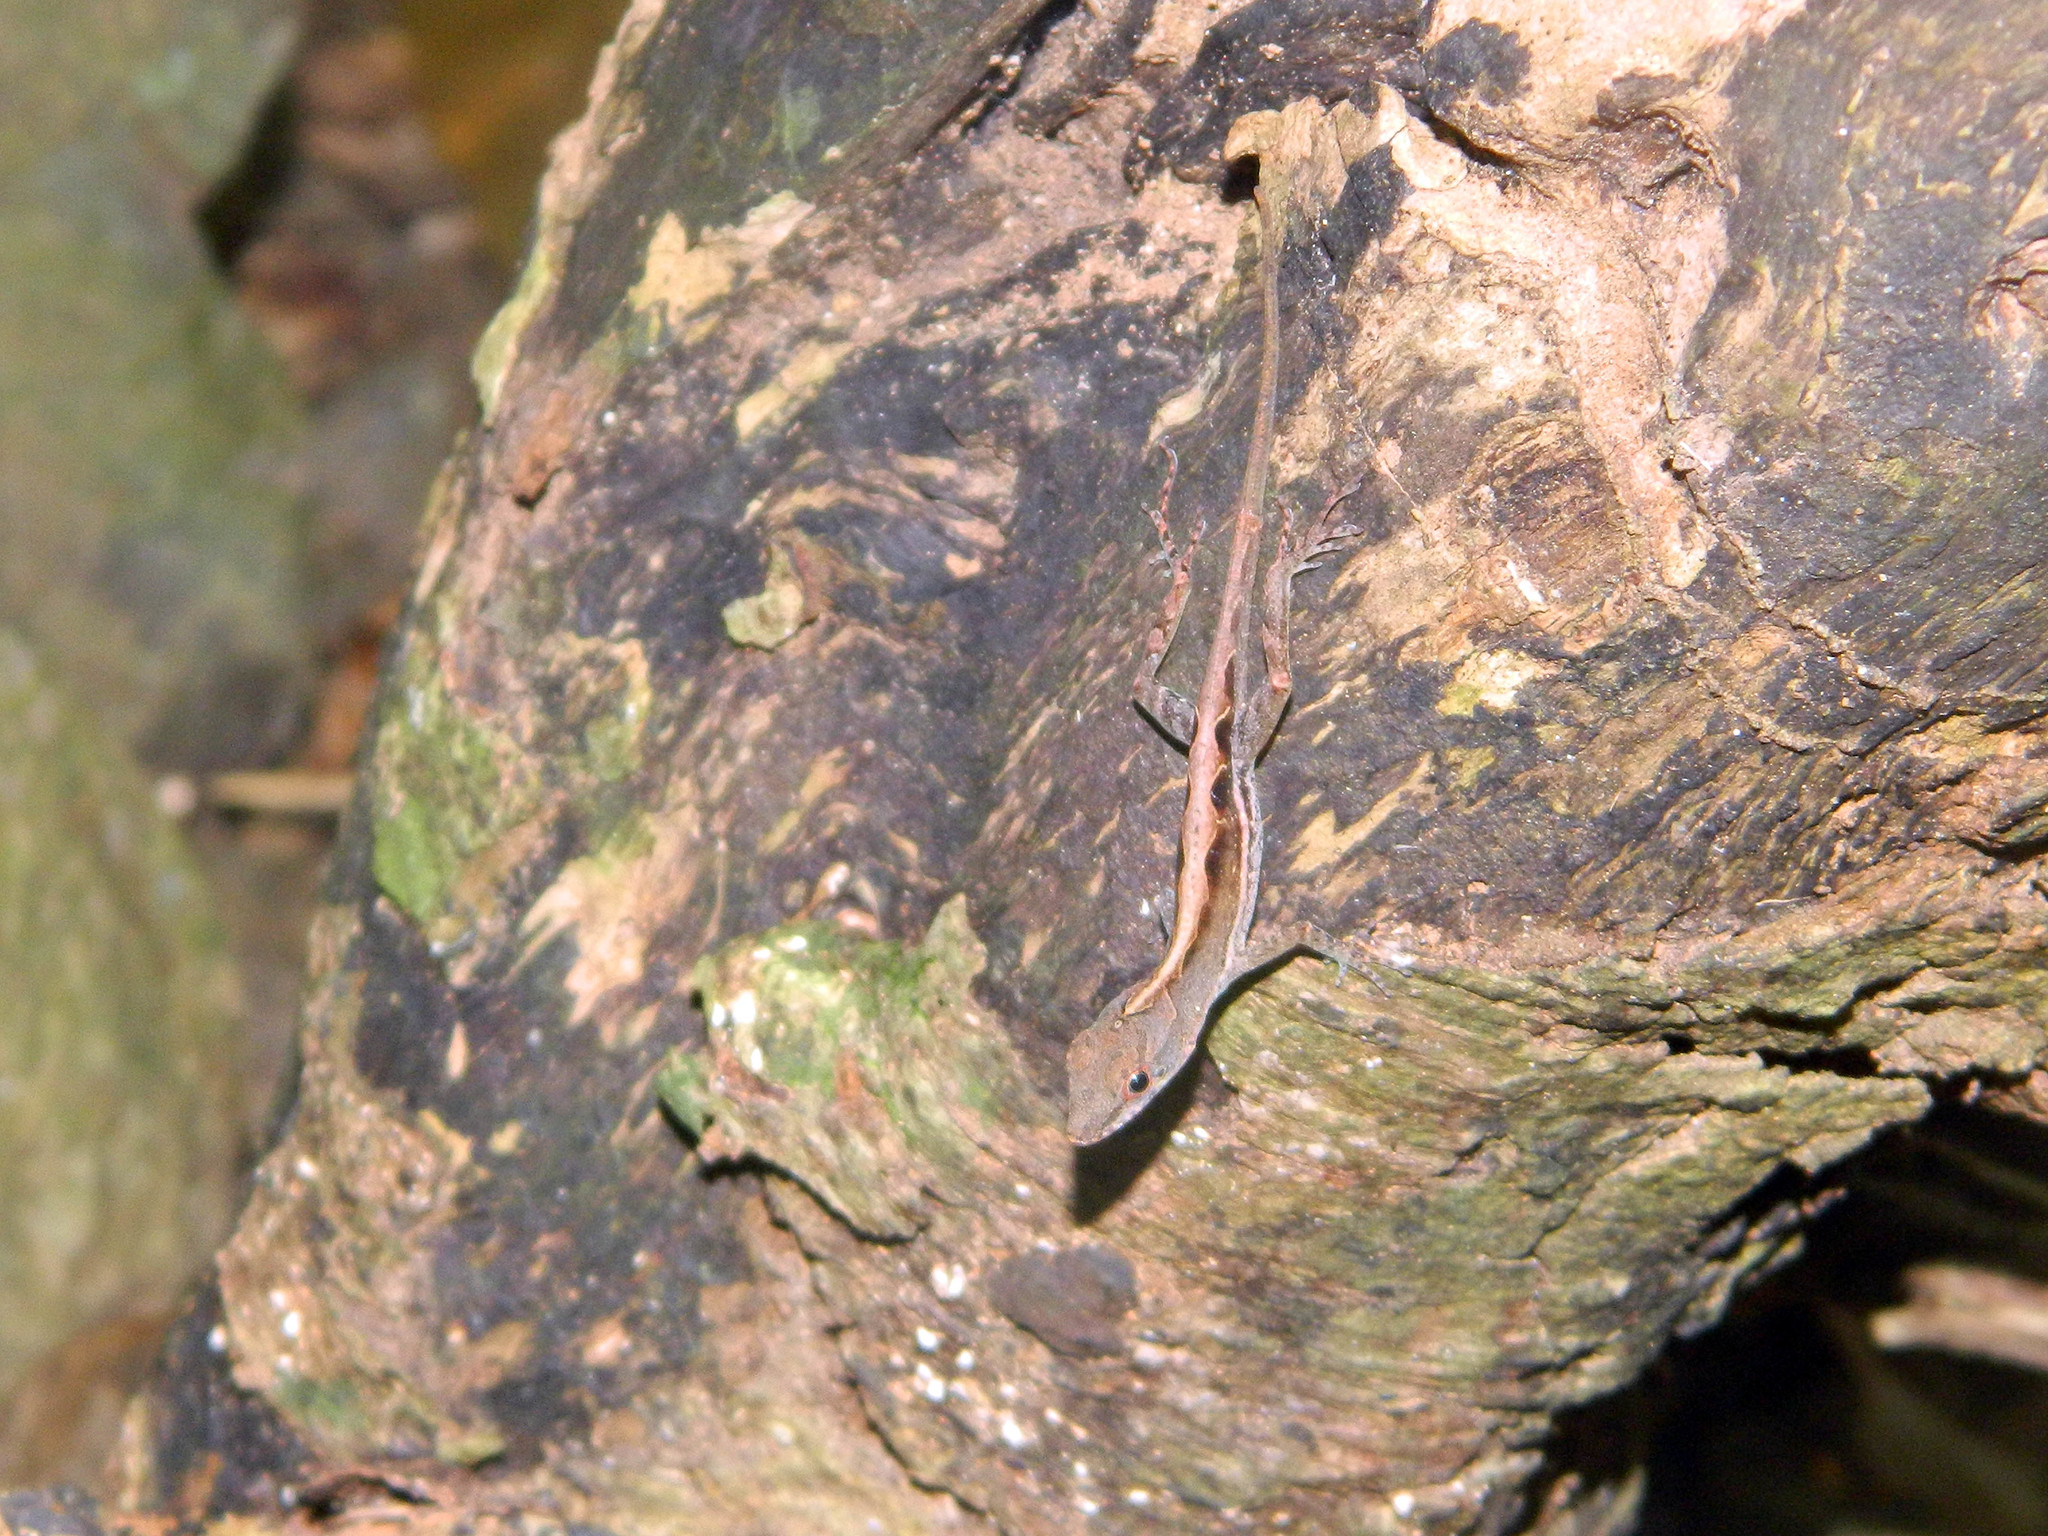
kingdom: Animalia
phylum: Chordata
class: Squamata
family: Dactyloidae
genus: Anolis
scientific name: Anolis wattsii
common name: Antigua bank bush anole
